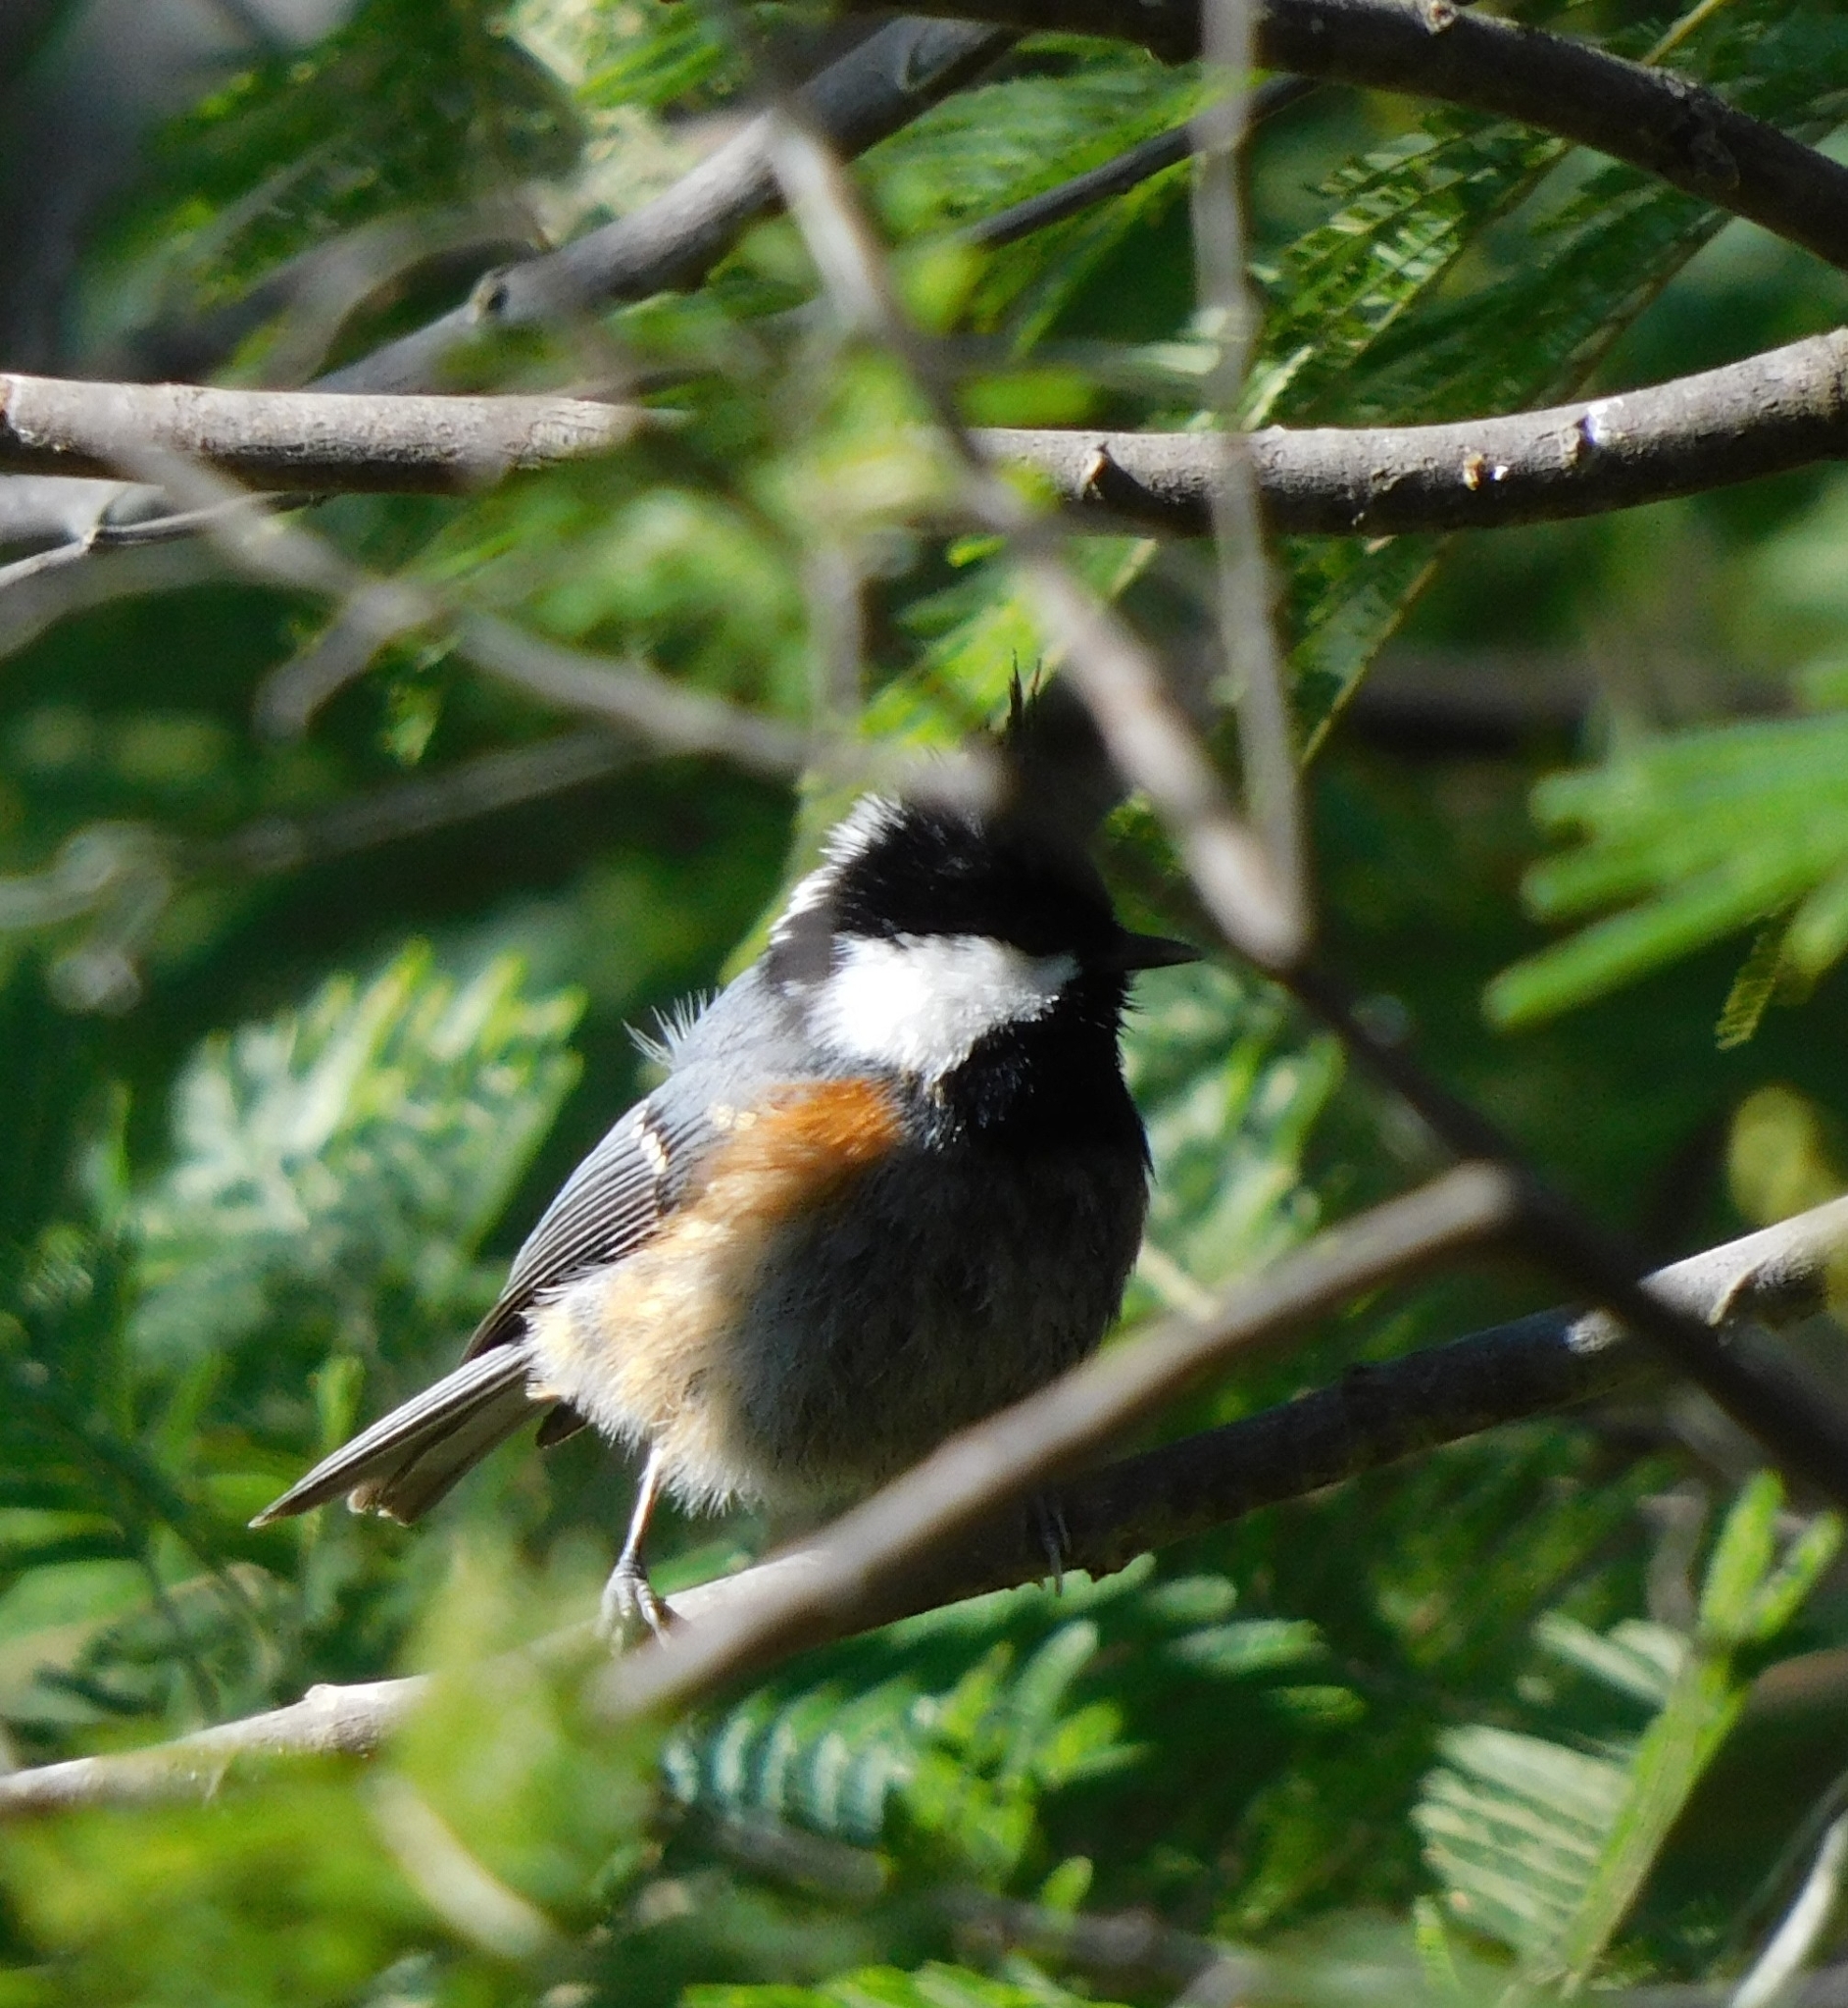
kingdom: Animalia
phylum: Chordata
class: Aves
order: Passeriformes
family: Paridae
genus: Periparus
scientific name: Periparus ater
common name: Coal tit
